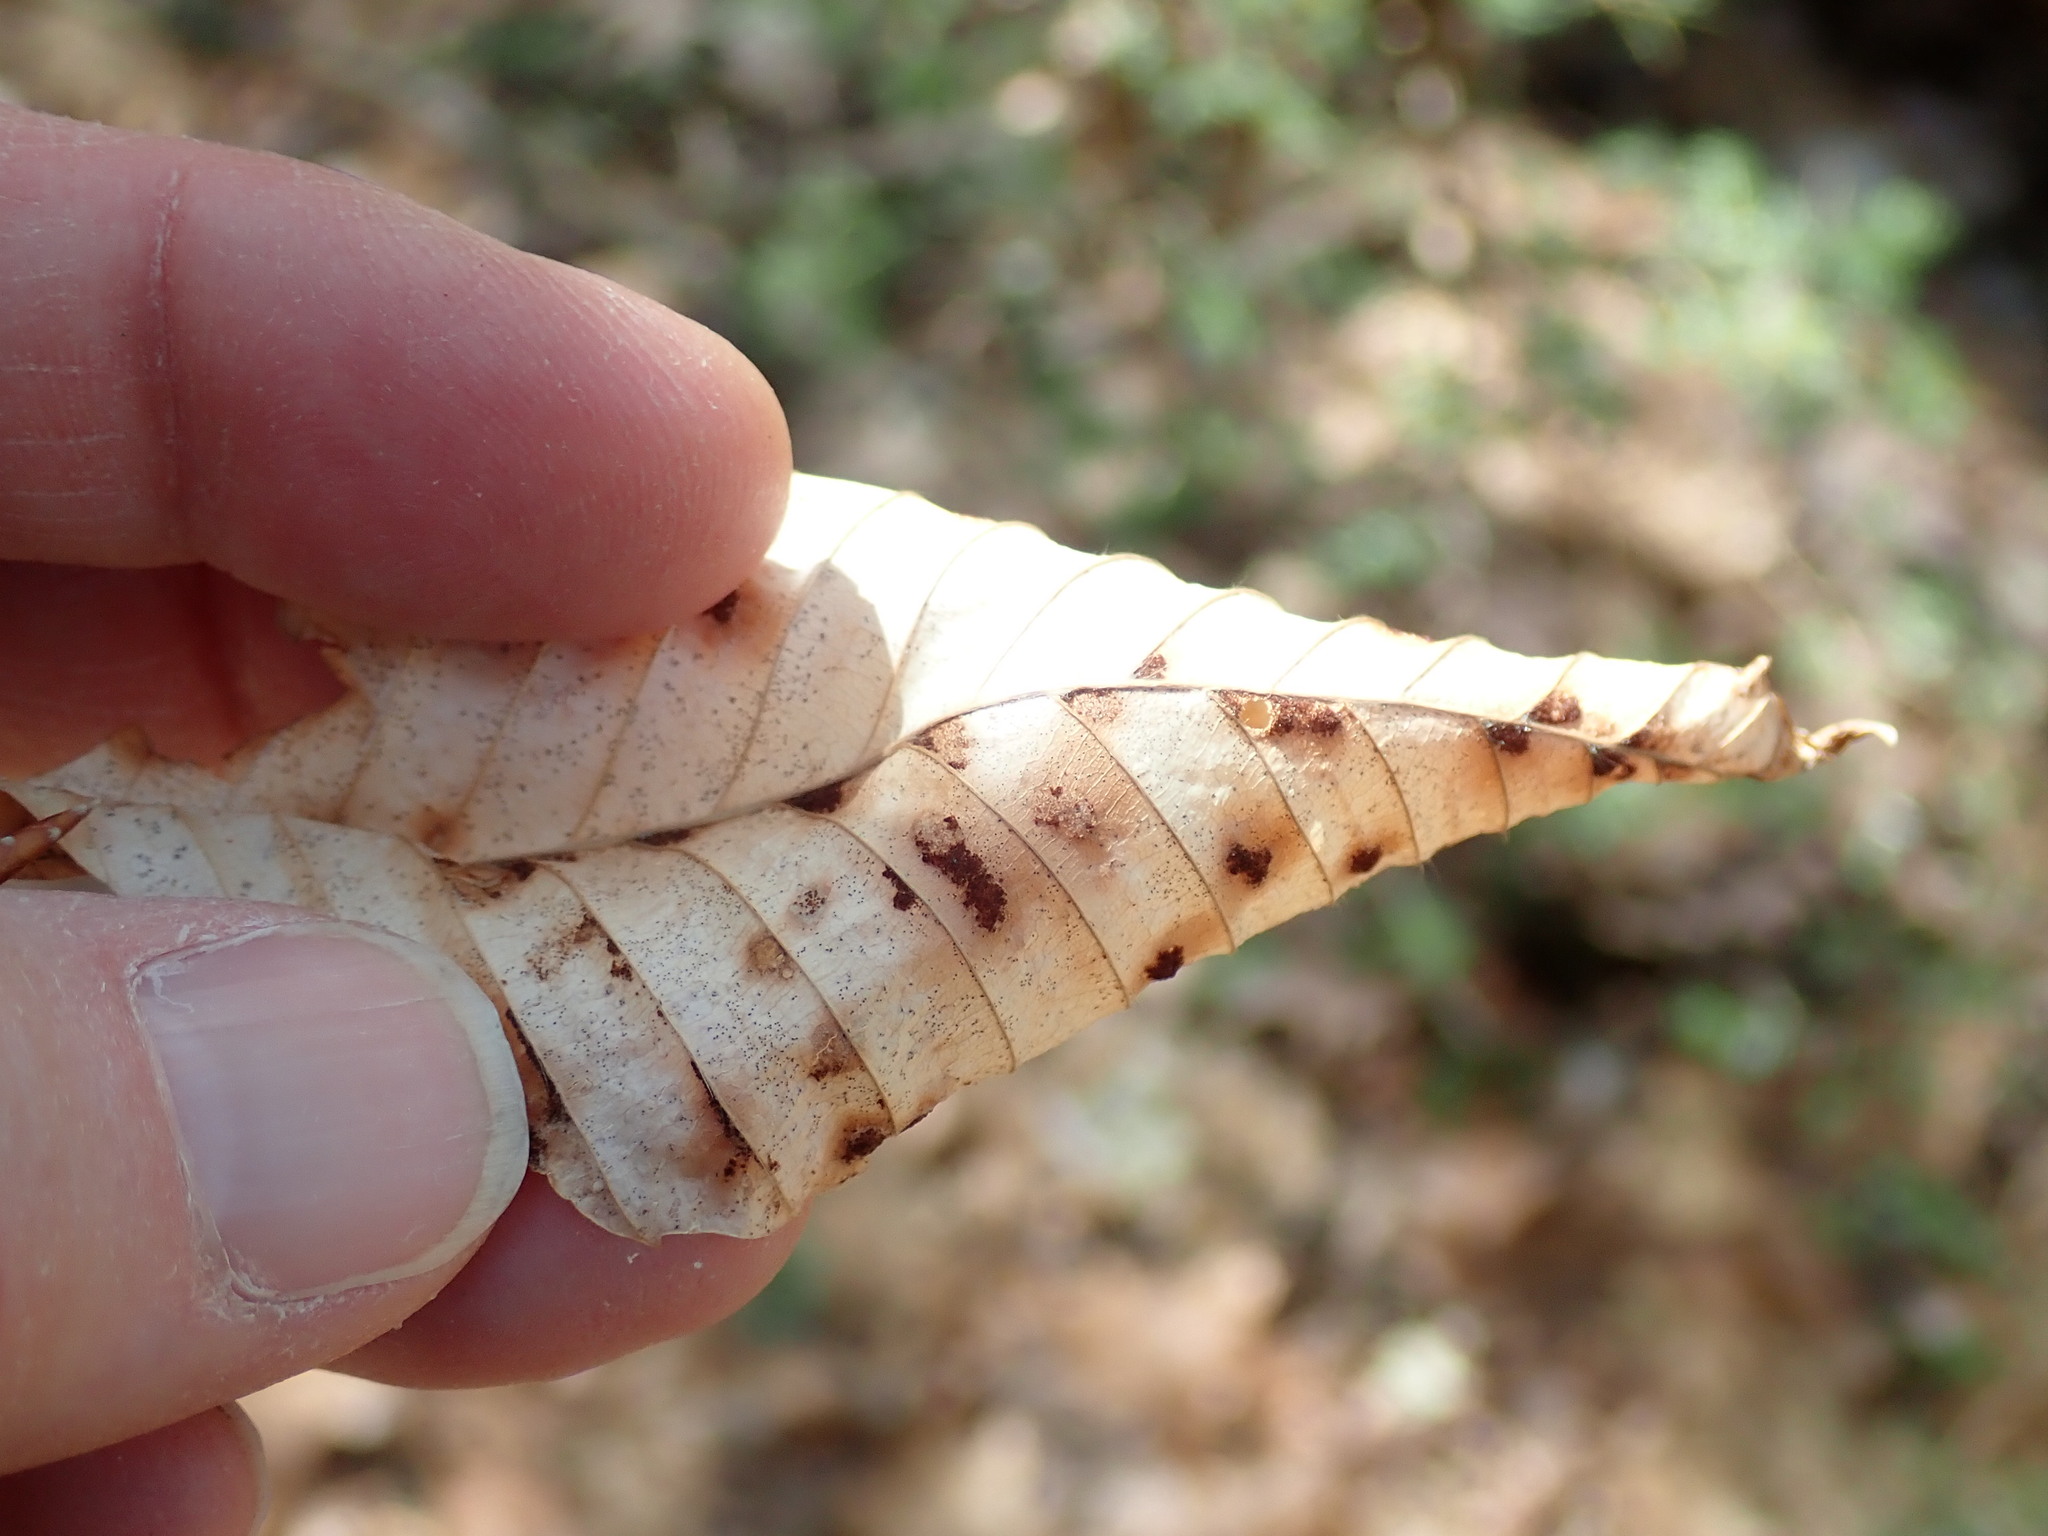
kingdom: Animalia
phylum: Arthropoda
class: Arachnida
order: Trombidiformes
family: Eriophyidae
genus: Acalitus
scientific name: Acalitus
